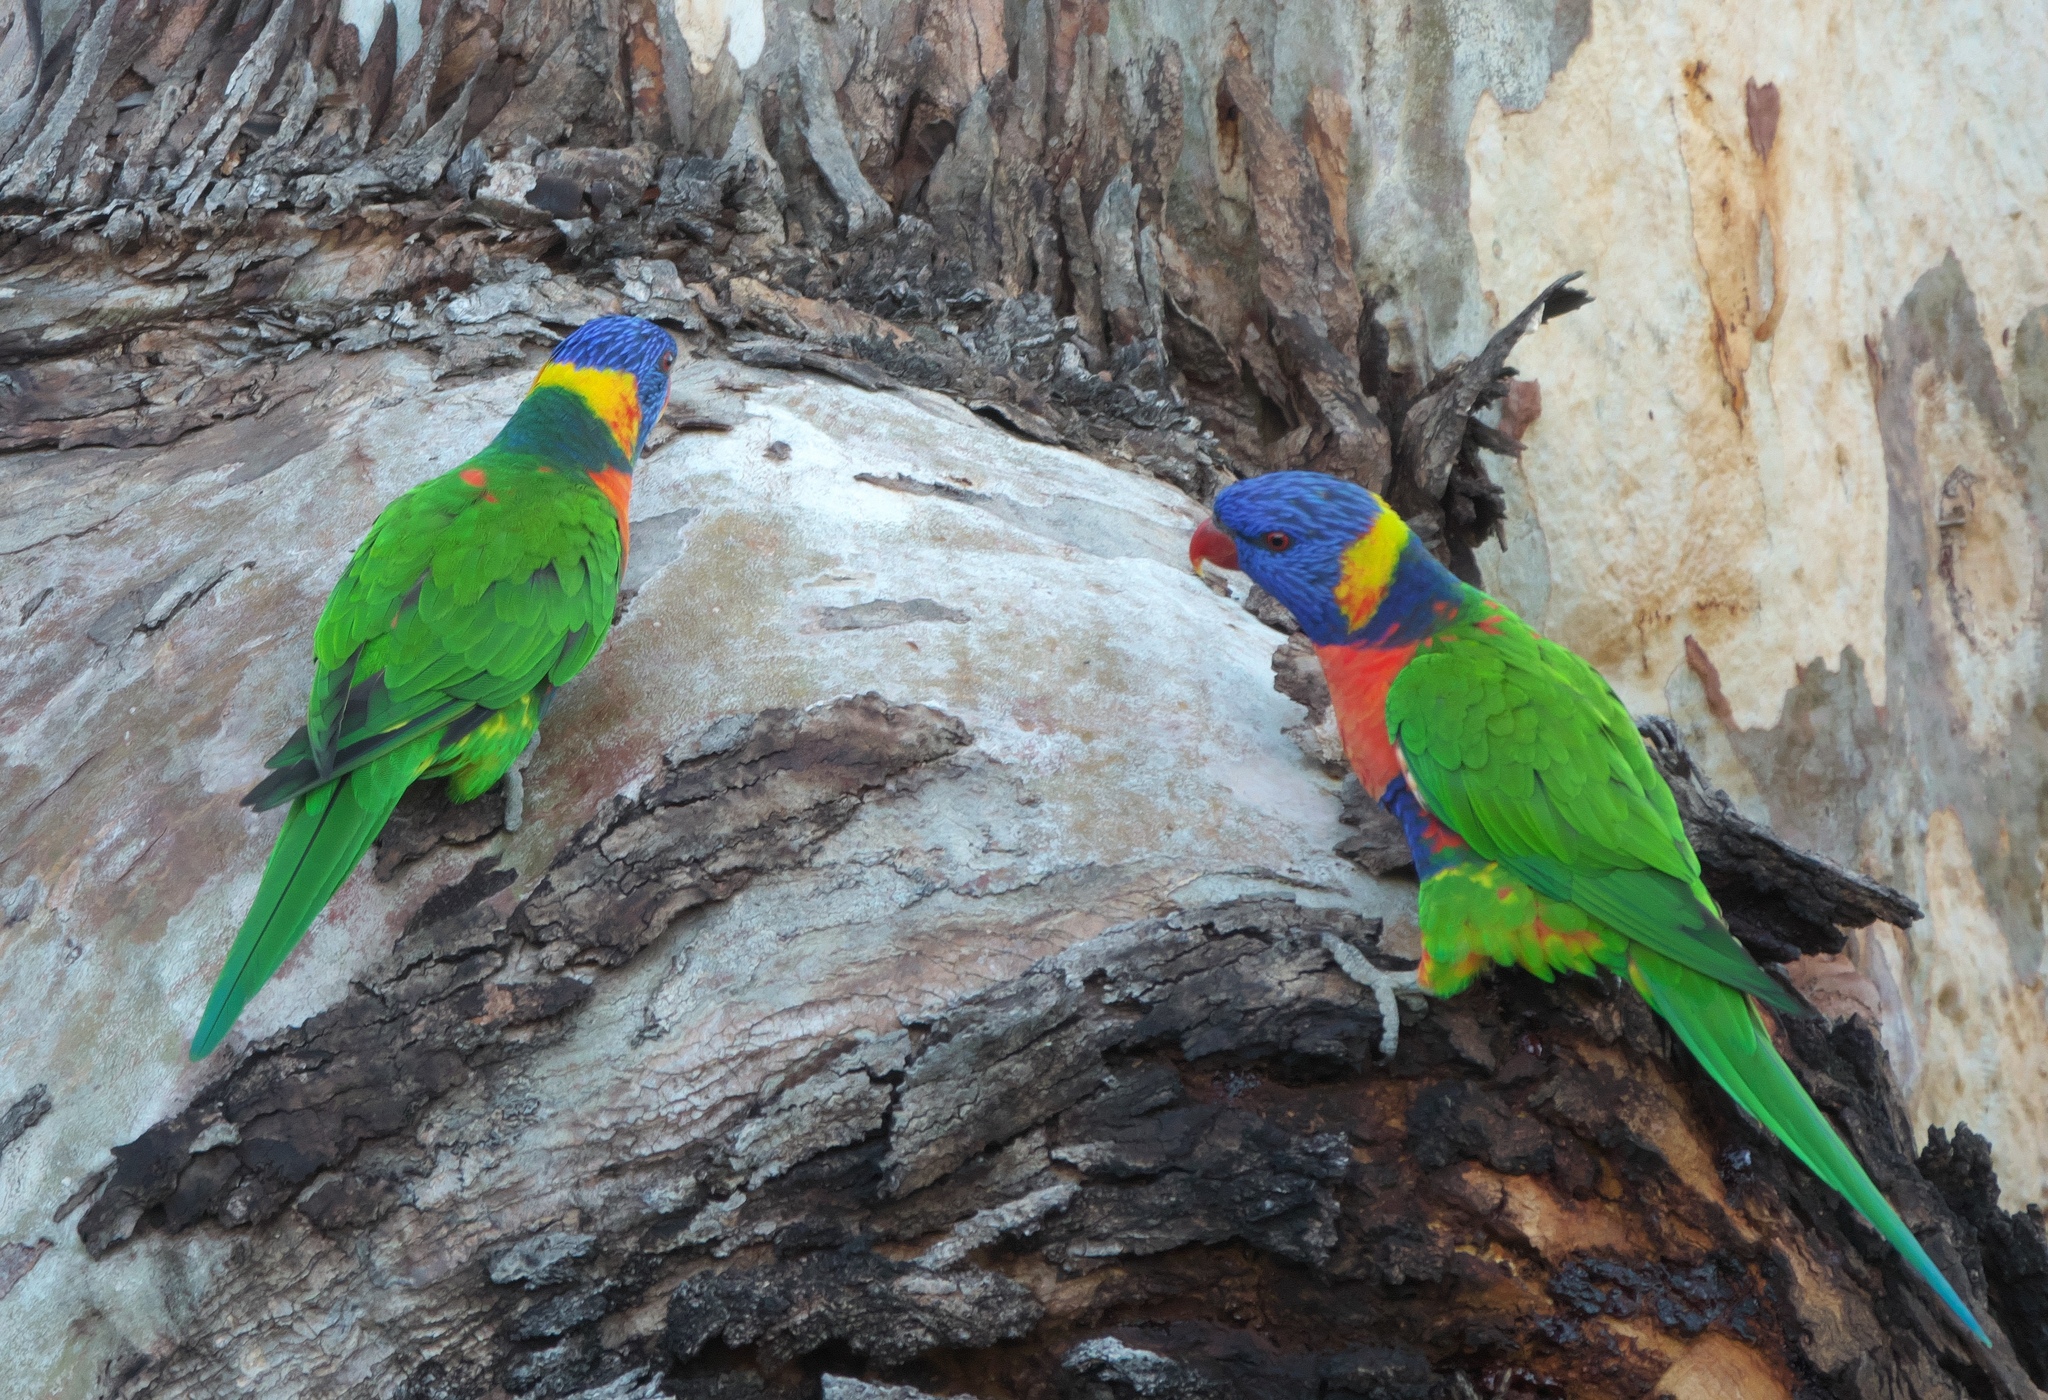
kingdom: Animalia
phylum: Chordata
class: Aves
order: Psittaciformes
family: Psittacidae
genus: Trichoglossus
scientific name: Trichoglossus haematodus
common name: Coconut lorikeet
